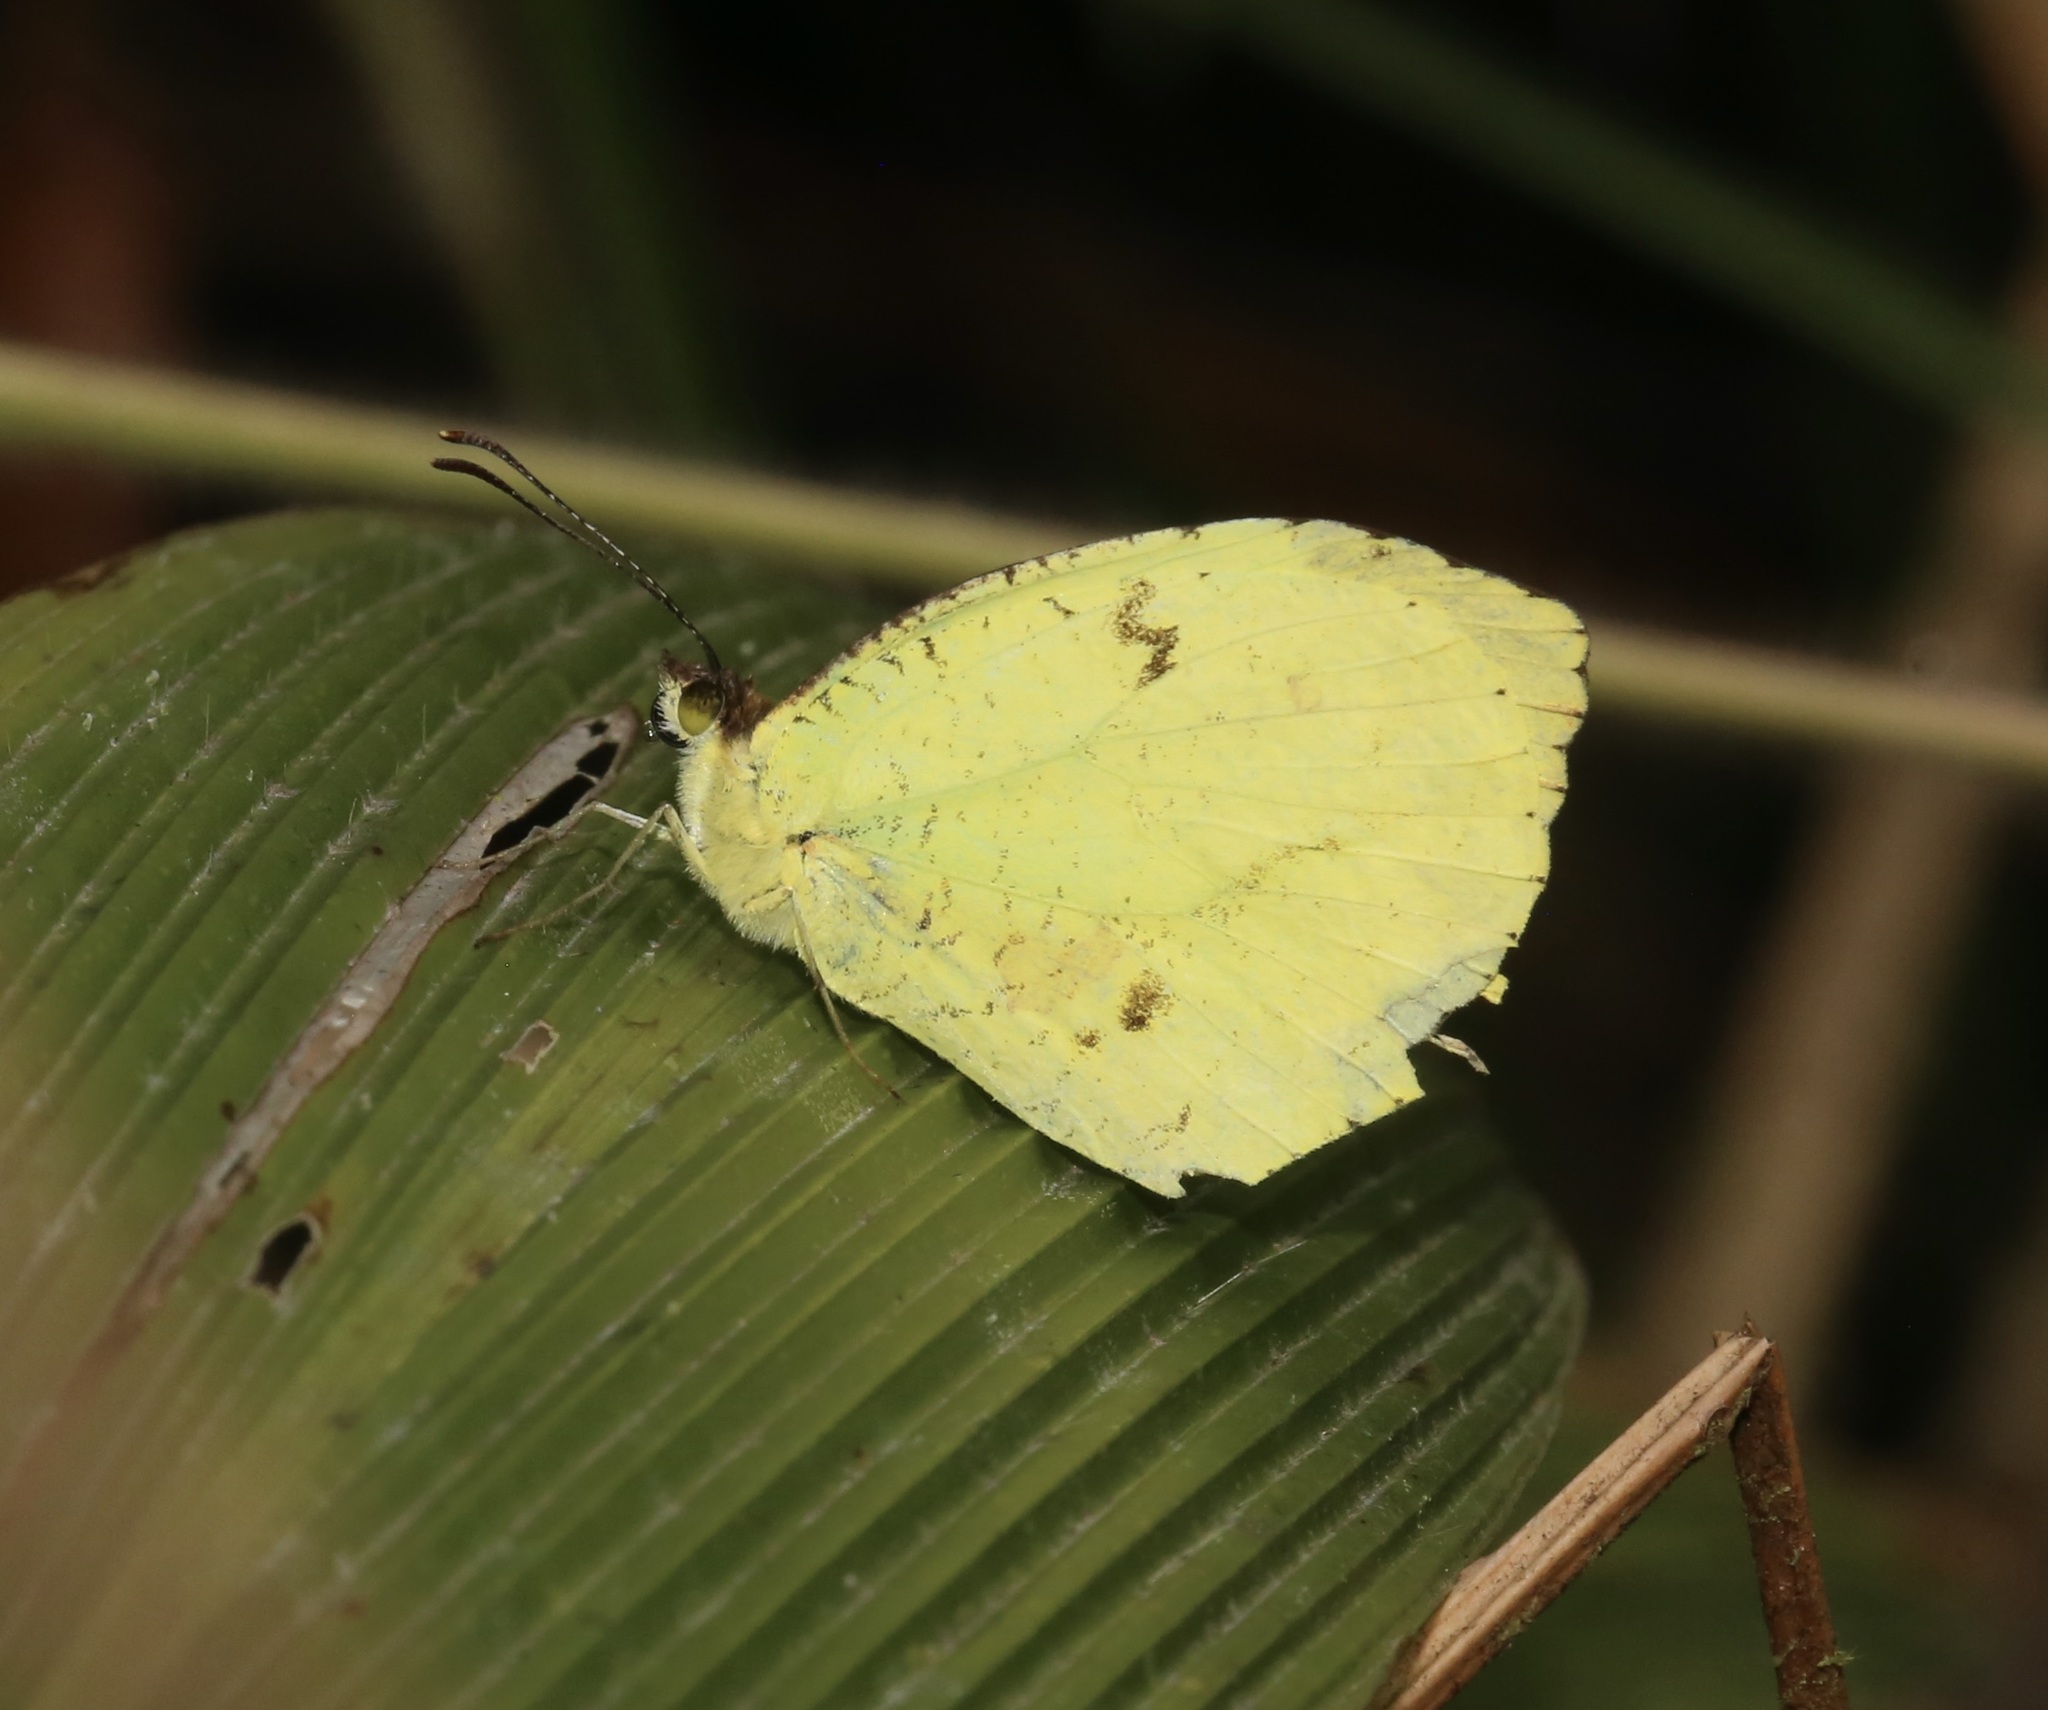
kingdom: Animalia
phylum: Arthropoda
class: Insecta
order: Lepidoptera
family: Pieridae
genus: Abaeis
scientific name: Abaeis
